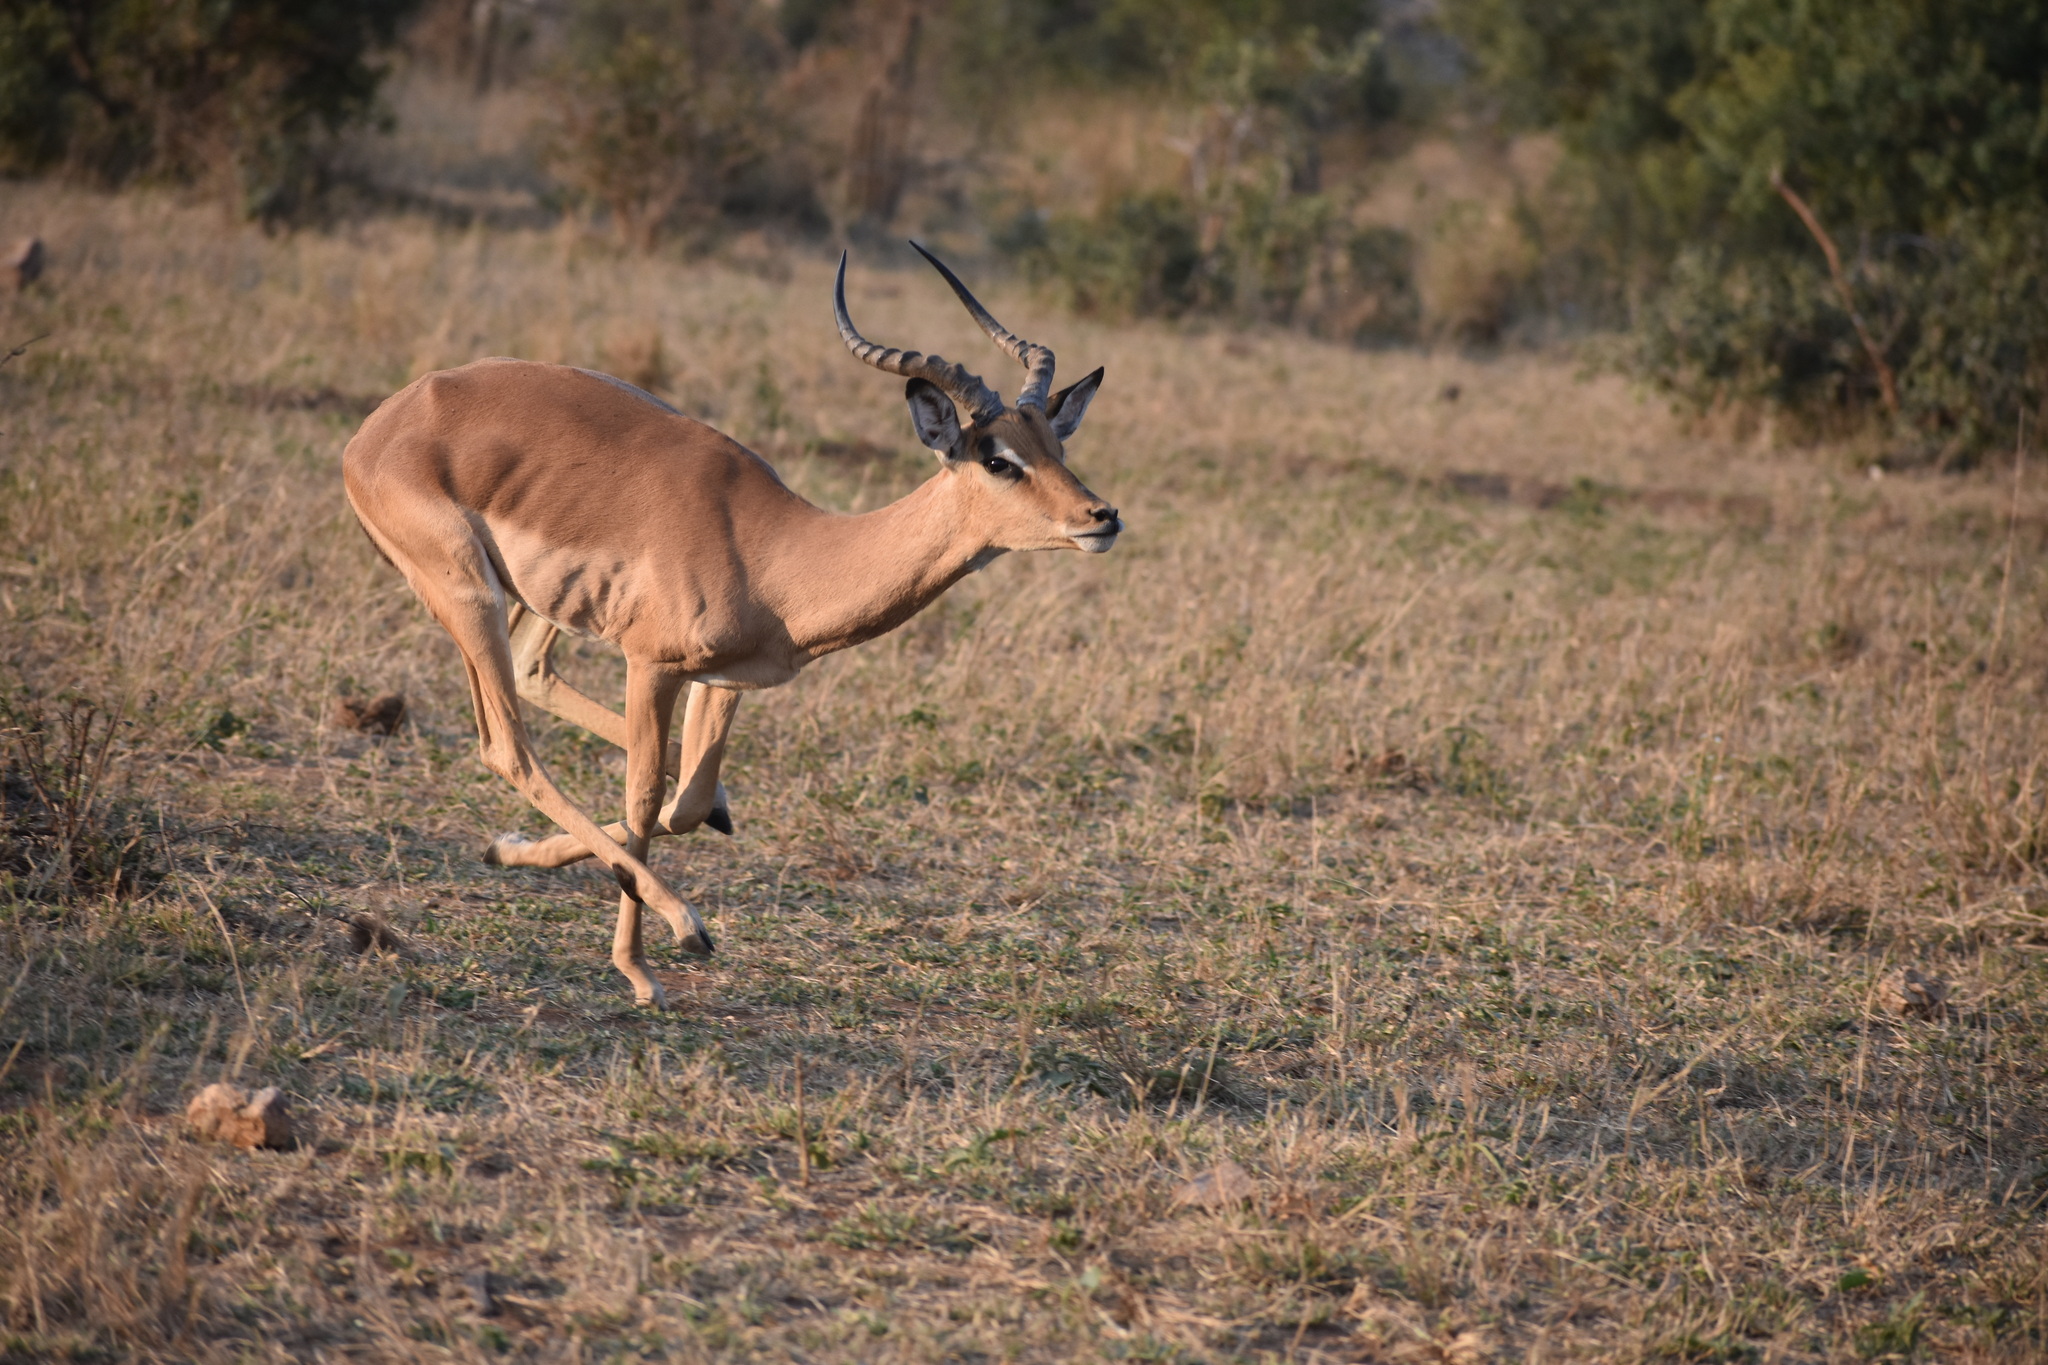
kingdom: Animalia
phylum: Chordata
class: Mammalia
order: Artiodactyla
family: Bovidae
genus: Aepyceros
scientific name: Aepyceros melampus
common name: Impala
